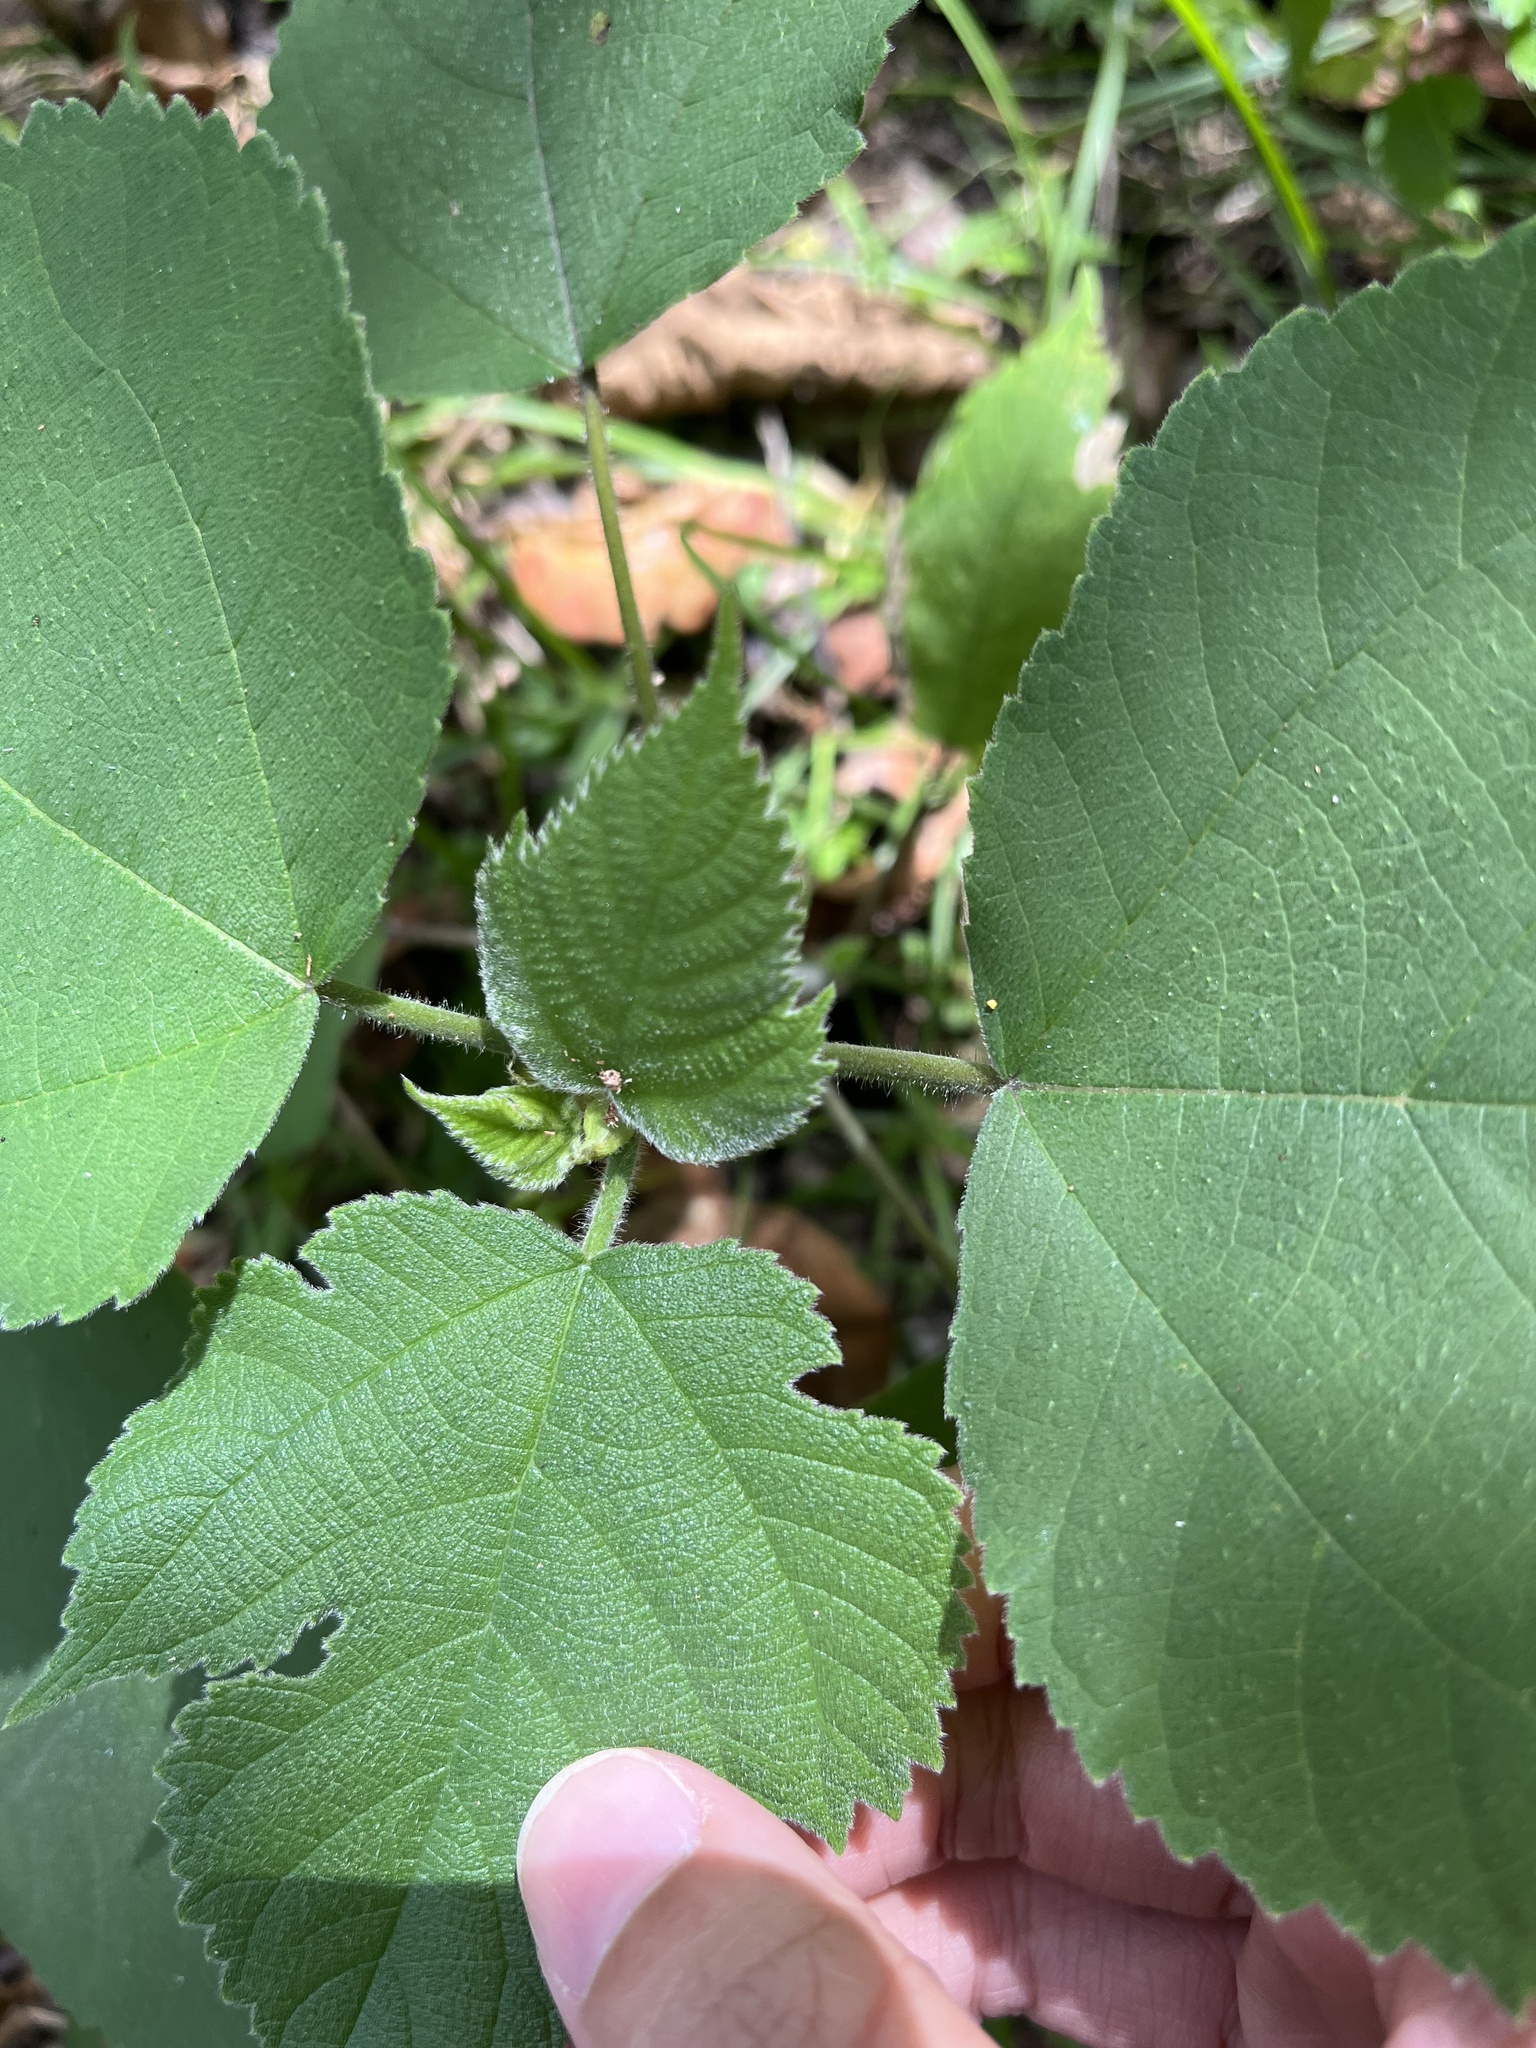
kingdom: Plantae
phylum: Tracheophyta
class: Magnoliopsida
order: Rosales
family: Moraceae
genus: Broussonetia
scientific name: Broussonetia papyrifera
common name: Paper mulberry
